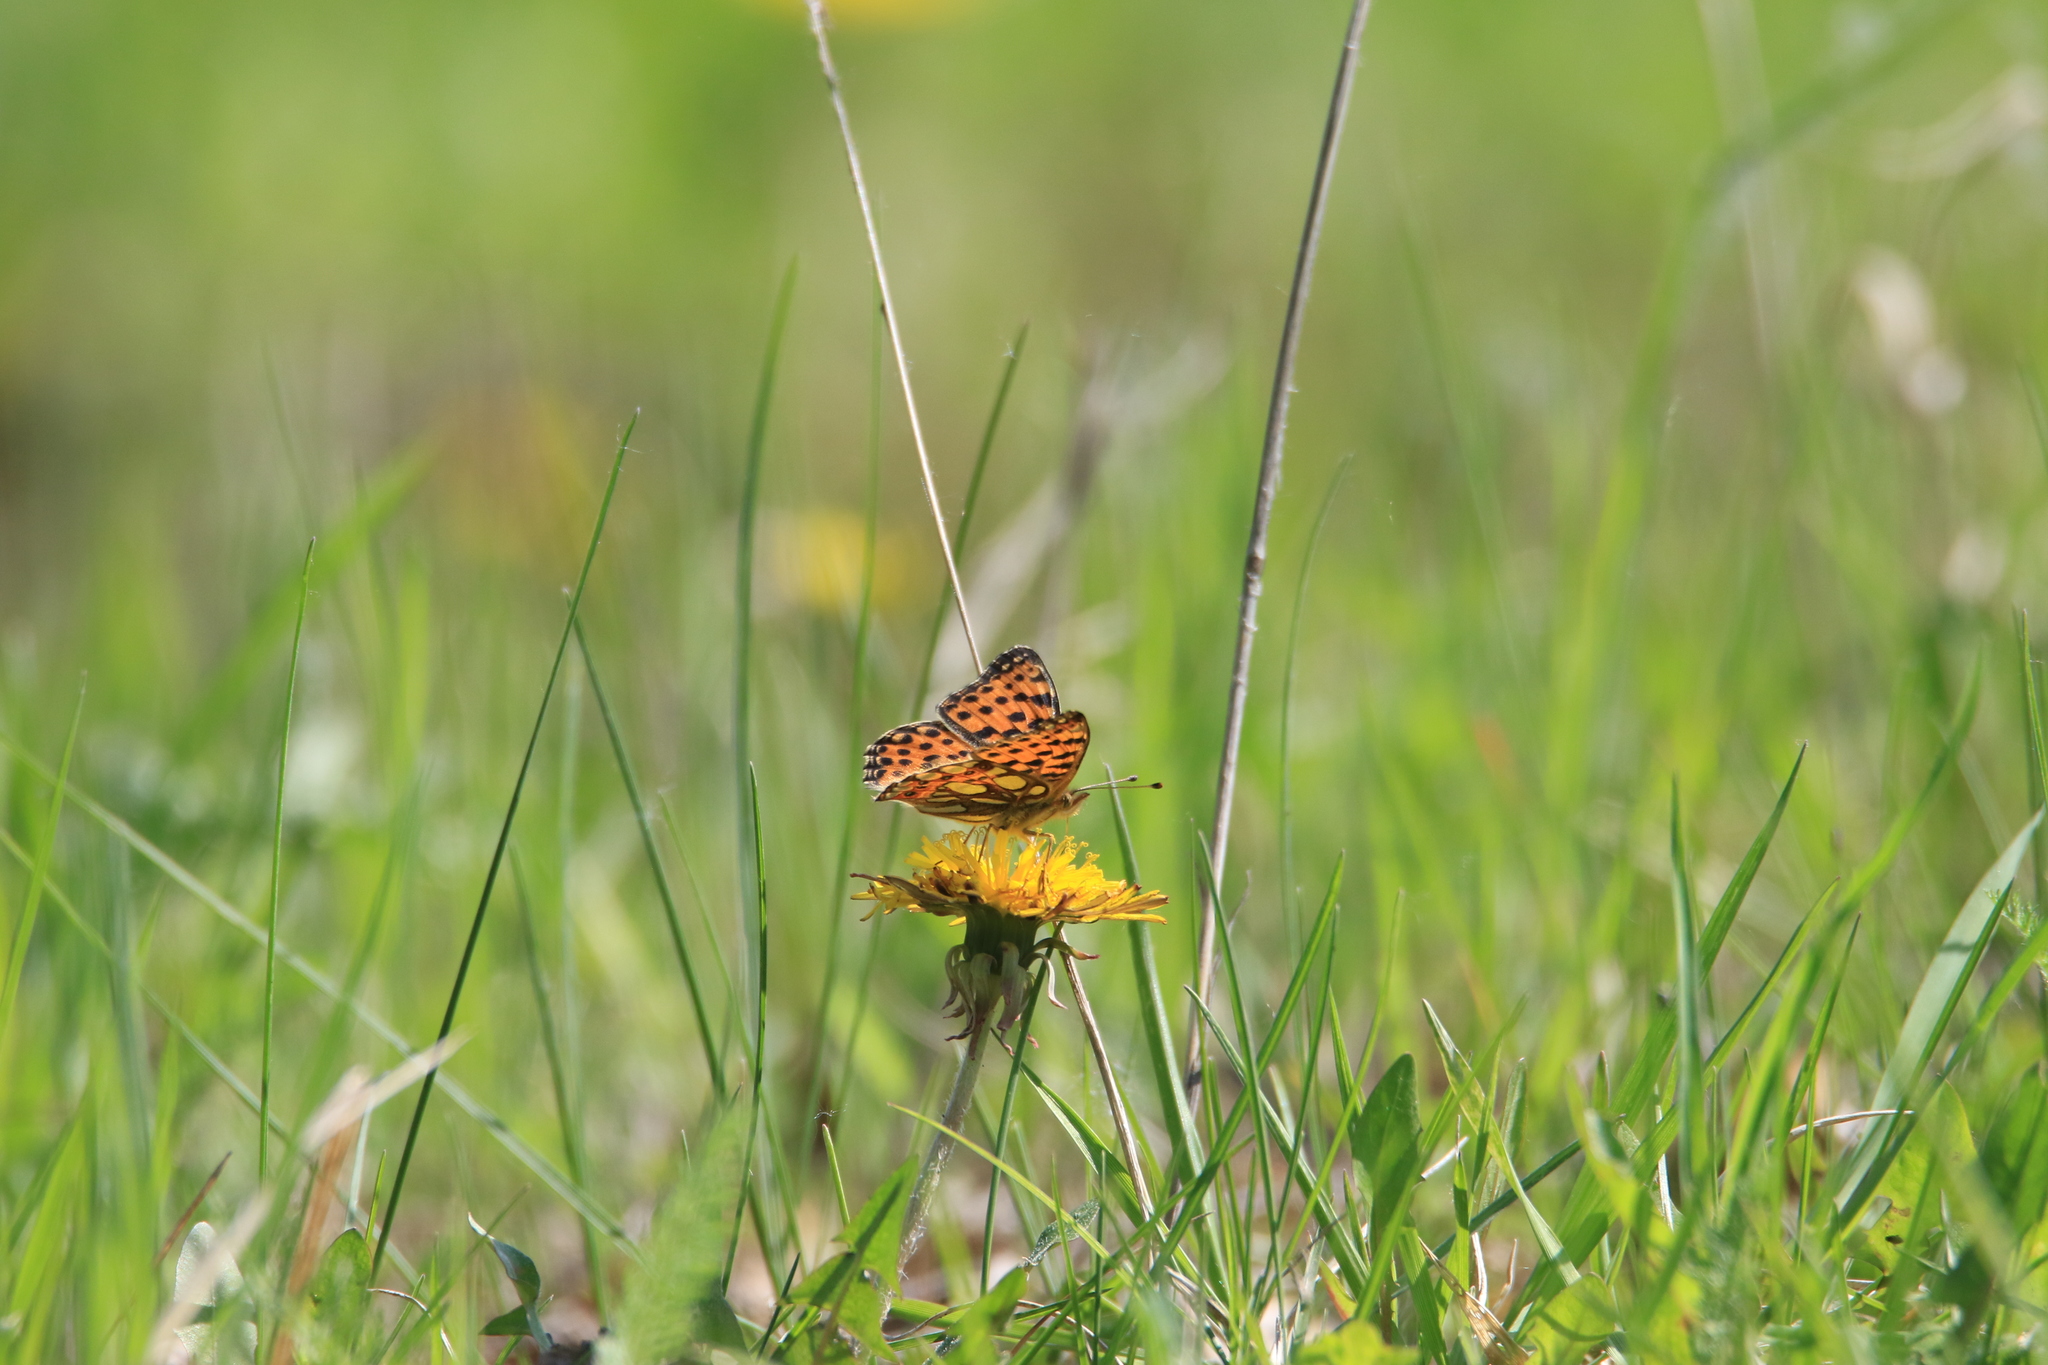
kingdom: Animalia
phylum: Arthropoda
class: Insecta
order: Lepidoptera
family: Nymphalidae
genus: Issoria
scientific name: Issoria lathonia
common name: Queen of spain fritillary
